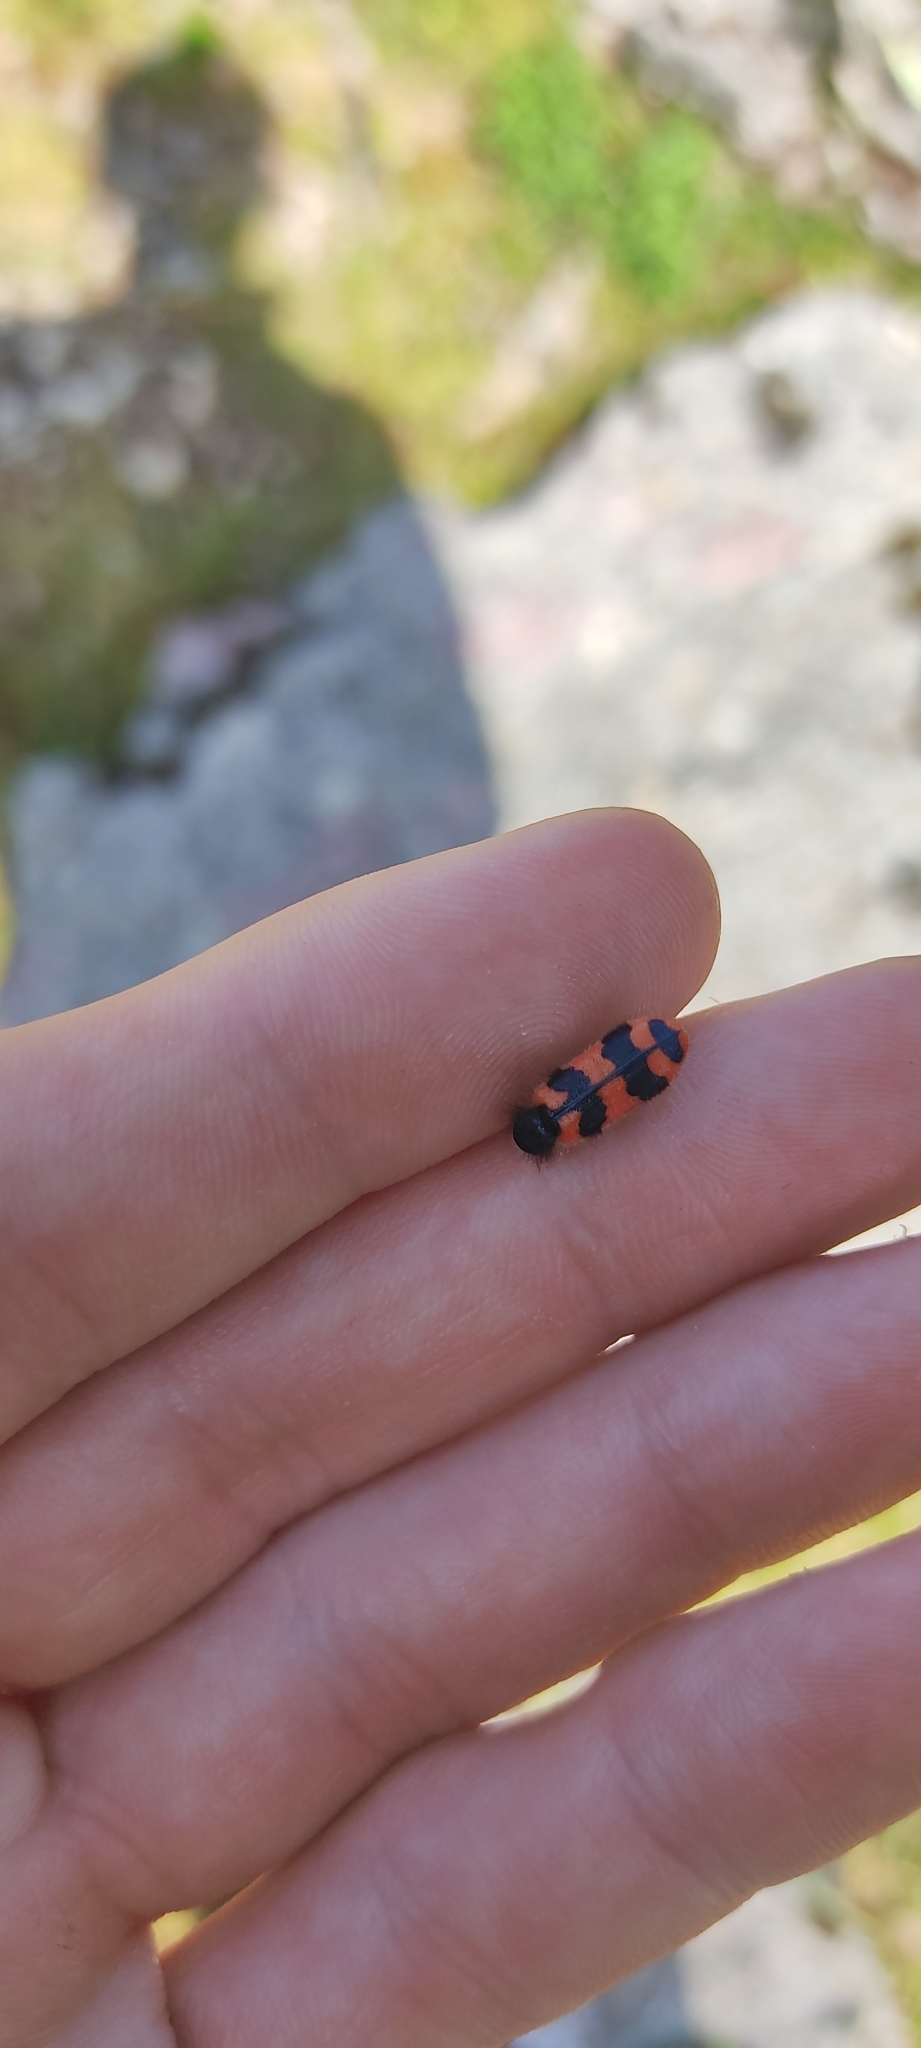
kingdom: Animalia
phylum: Arthropoda
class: Insecta
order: Coleoptera
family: Cleridae
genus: Trichodes
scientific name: Trichodes alvearius
